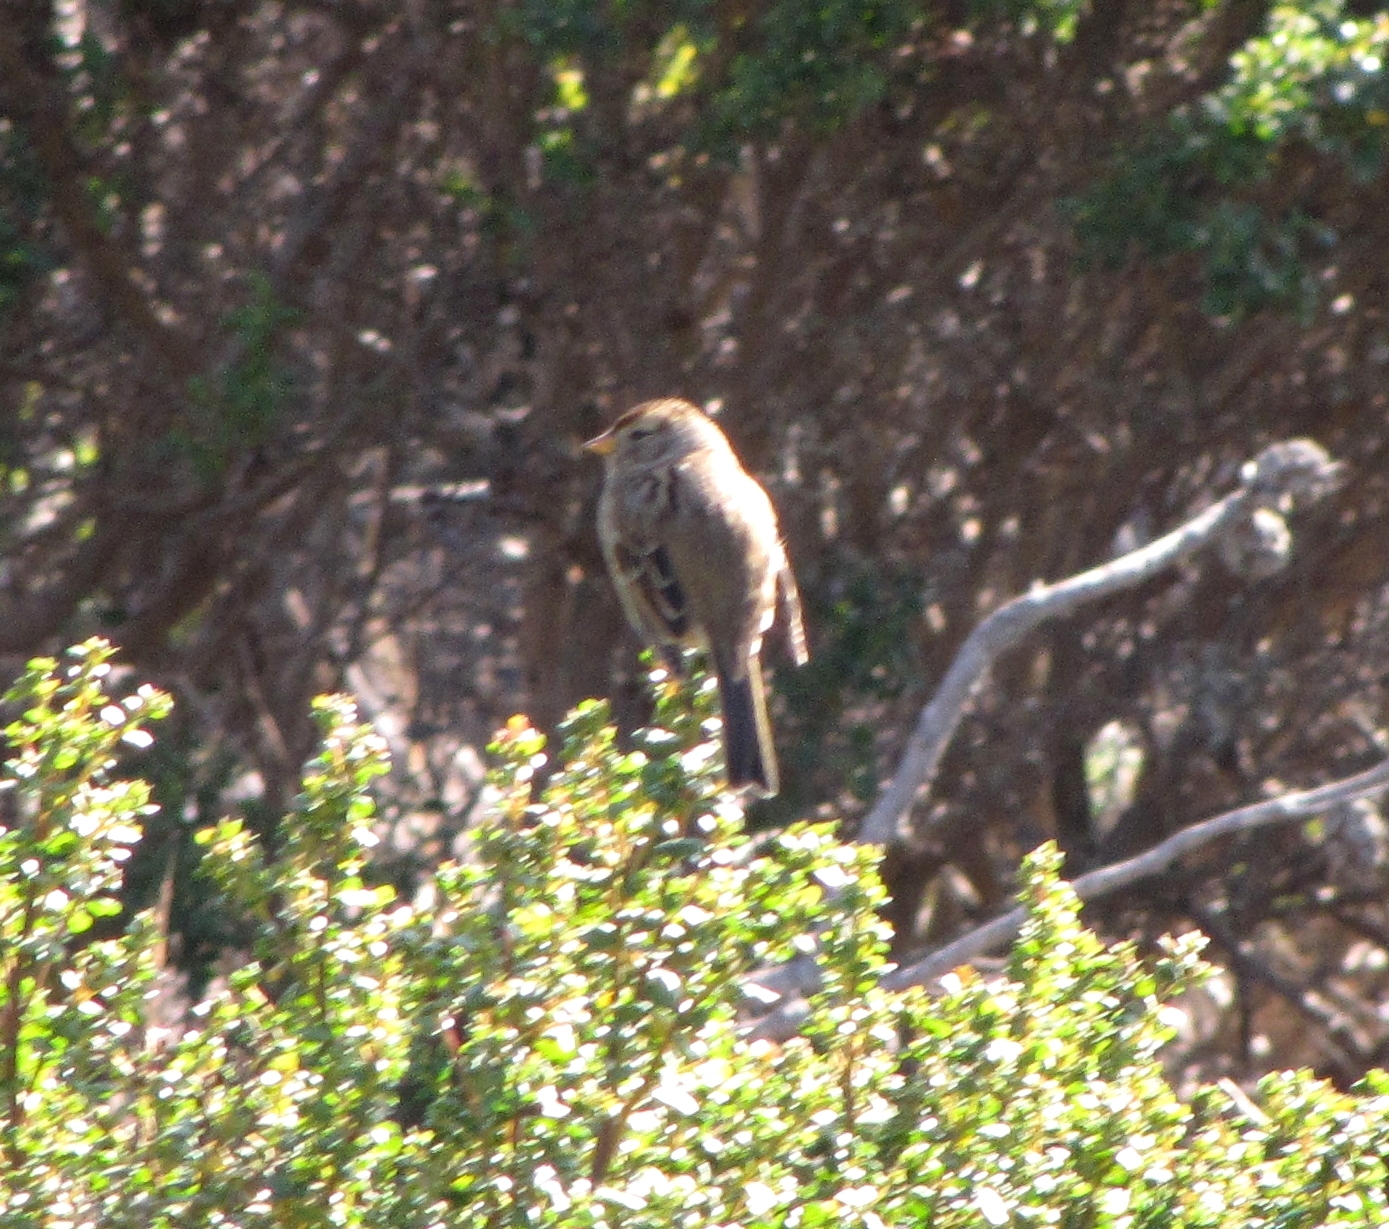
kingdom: Animalia
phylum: Chordata
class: Aves
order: Passeriformes
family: Passerellidae
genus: Zonotrichia
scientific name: Zonotrichia leucophrys
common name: White-crowned sparrow
